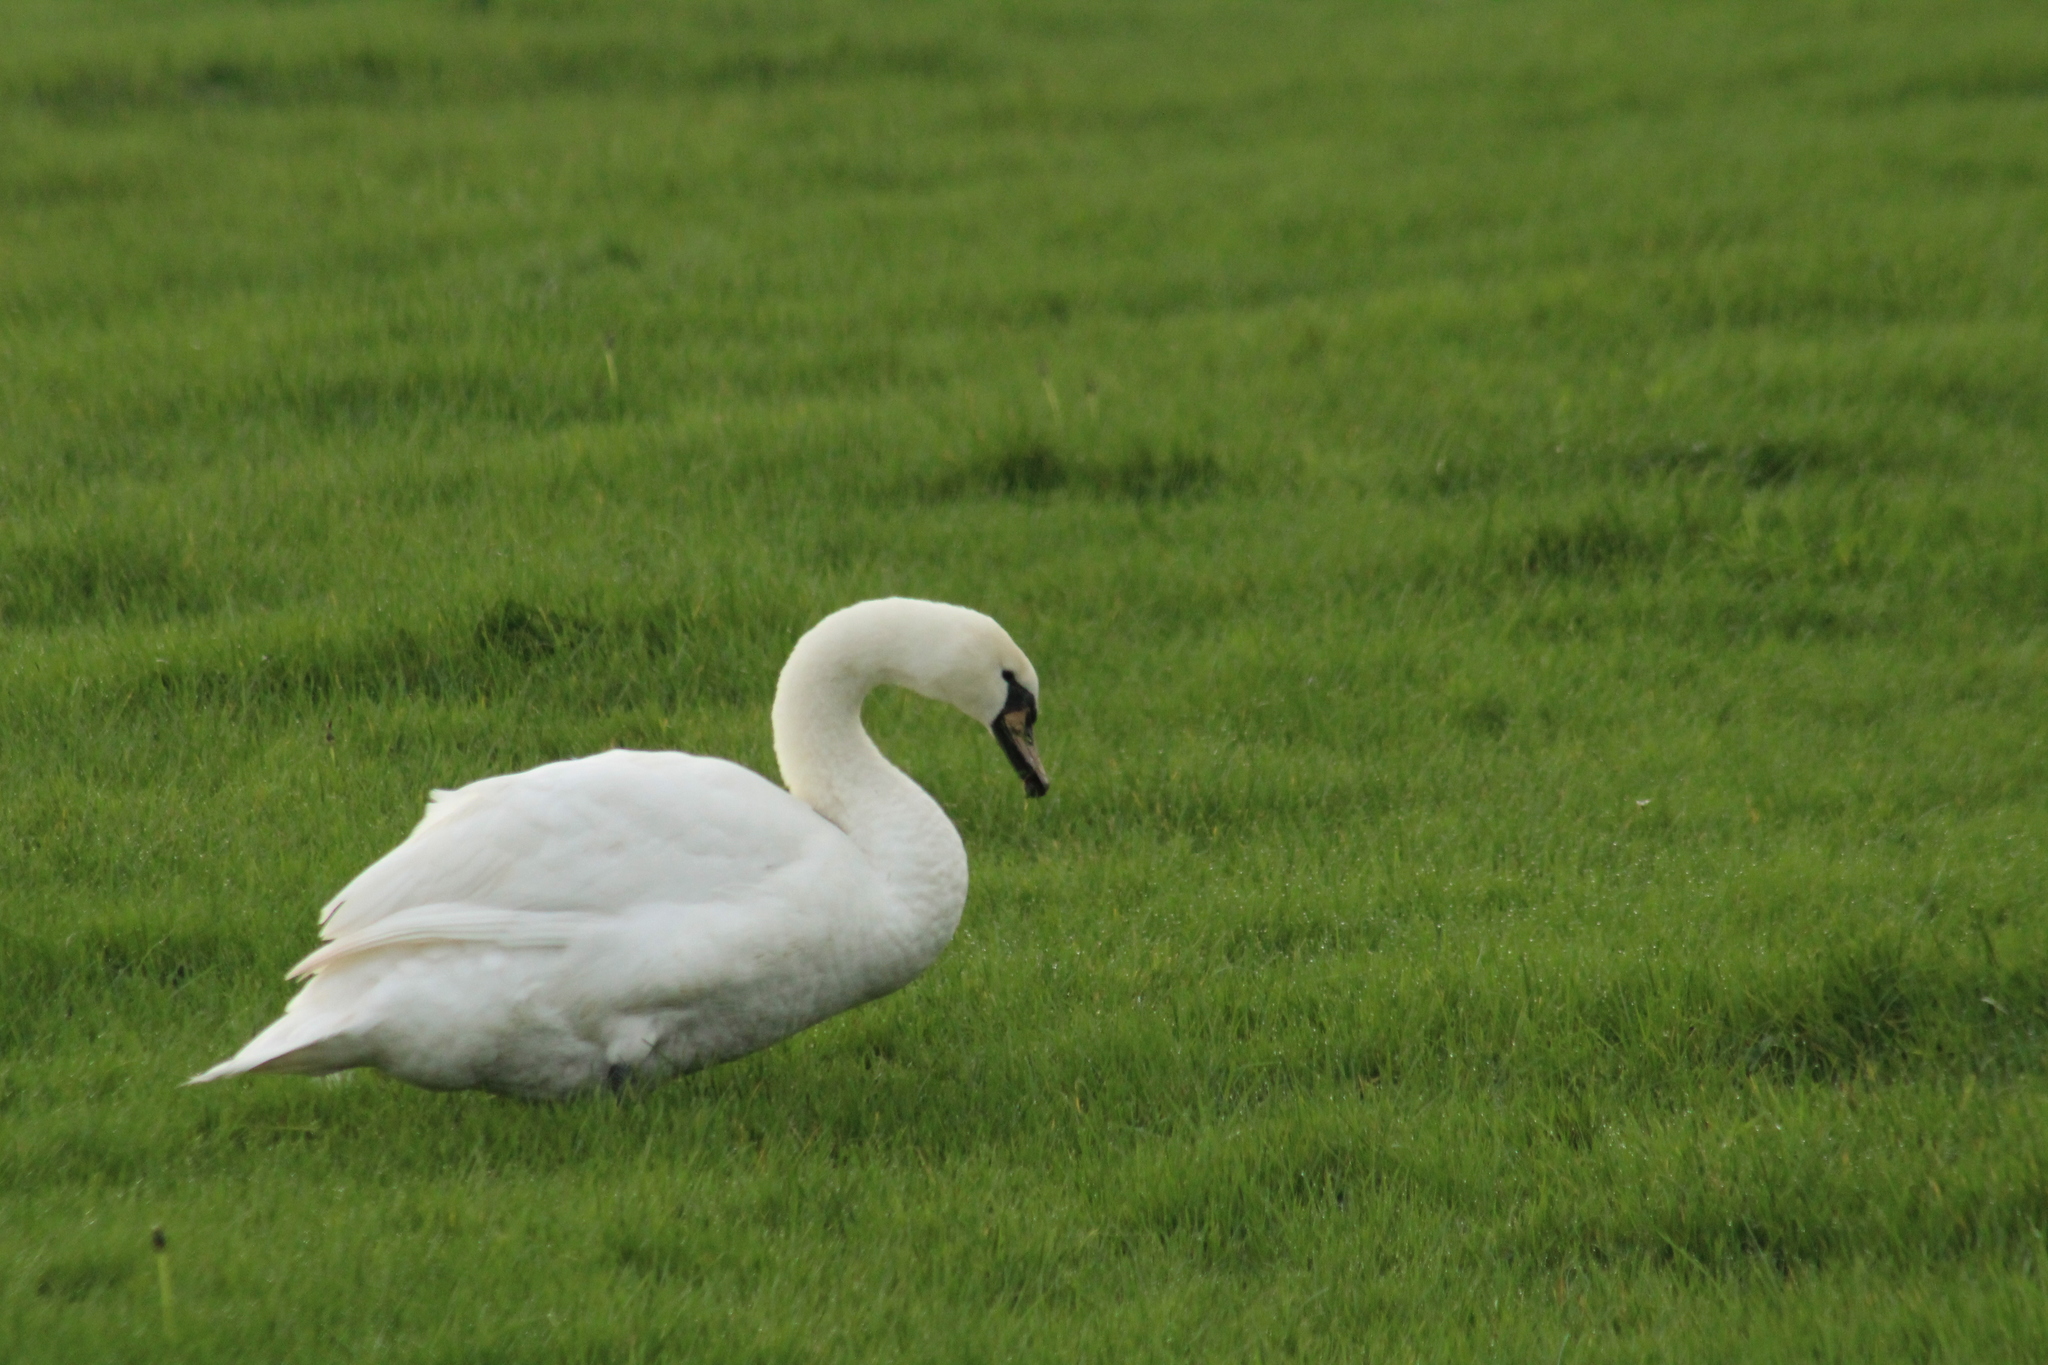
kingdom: Animalia
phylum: Chordata
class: Aves
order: Anseriformes
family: Anatidae
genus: Cygnus
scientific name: Cygnus olor
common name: Mute swan
